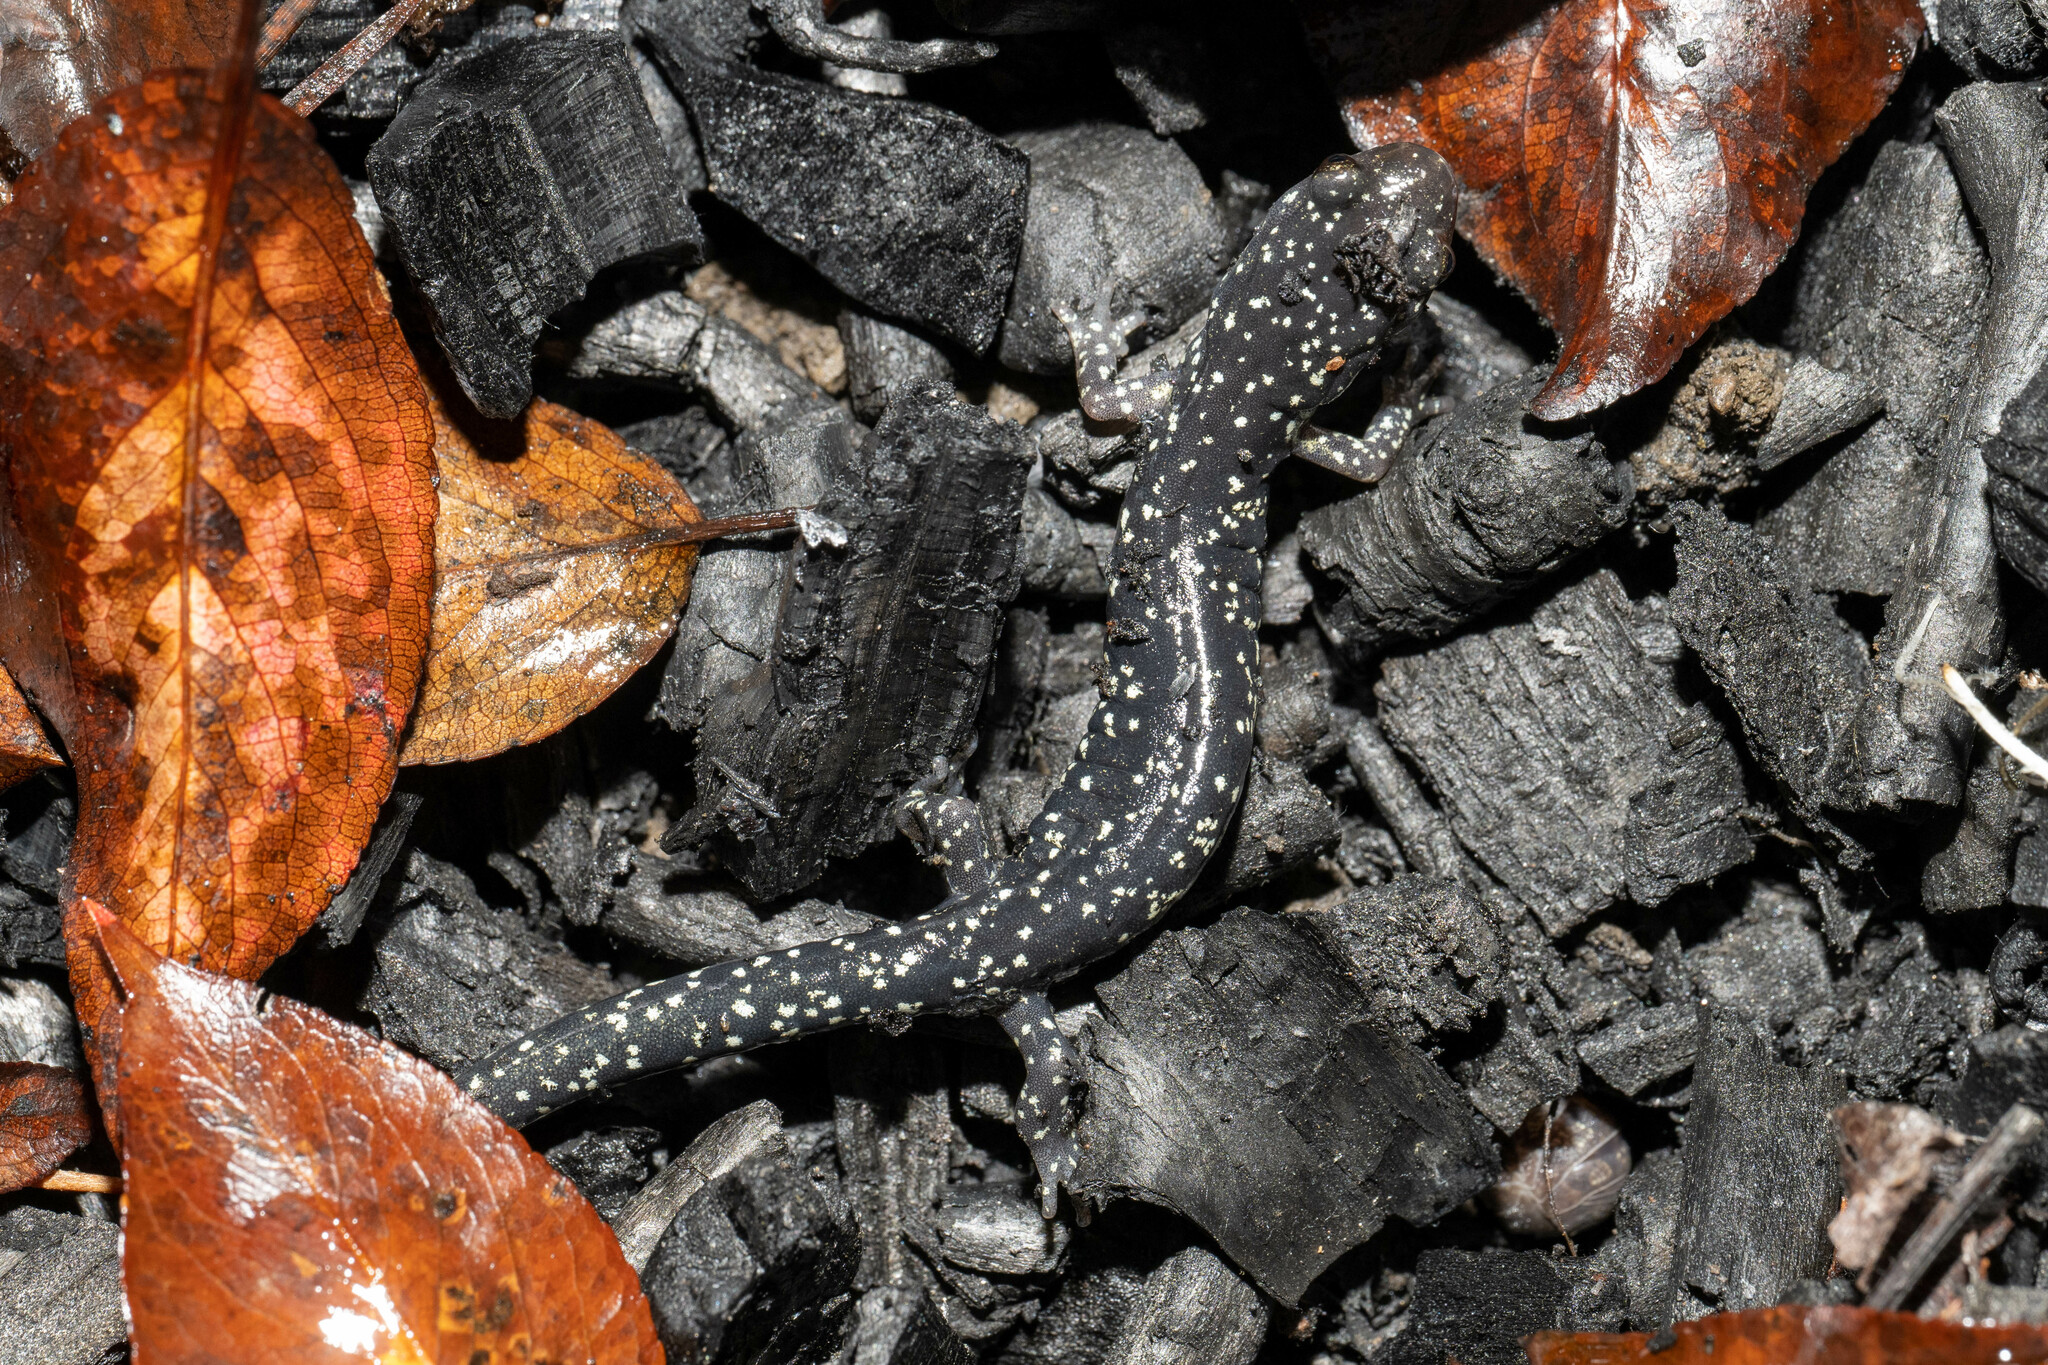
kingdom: Animalia
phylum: Chordata
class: Amphibia
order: Caudata
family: Plethodontidae
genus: Aneides
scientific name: Aneides flavipunctatus
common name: Black salamander
